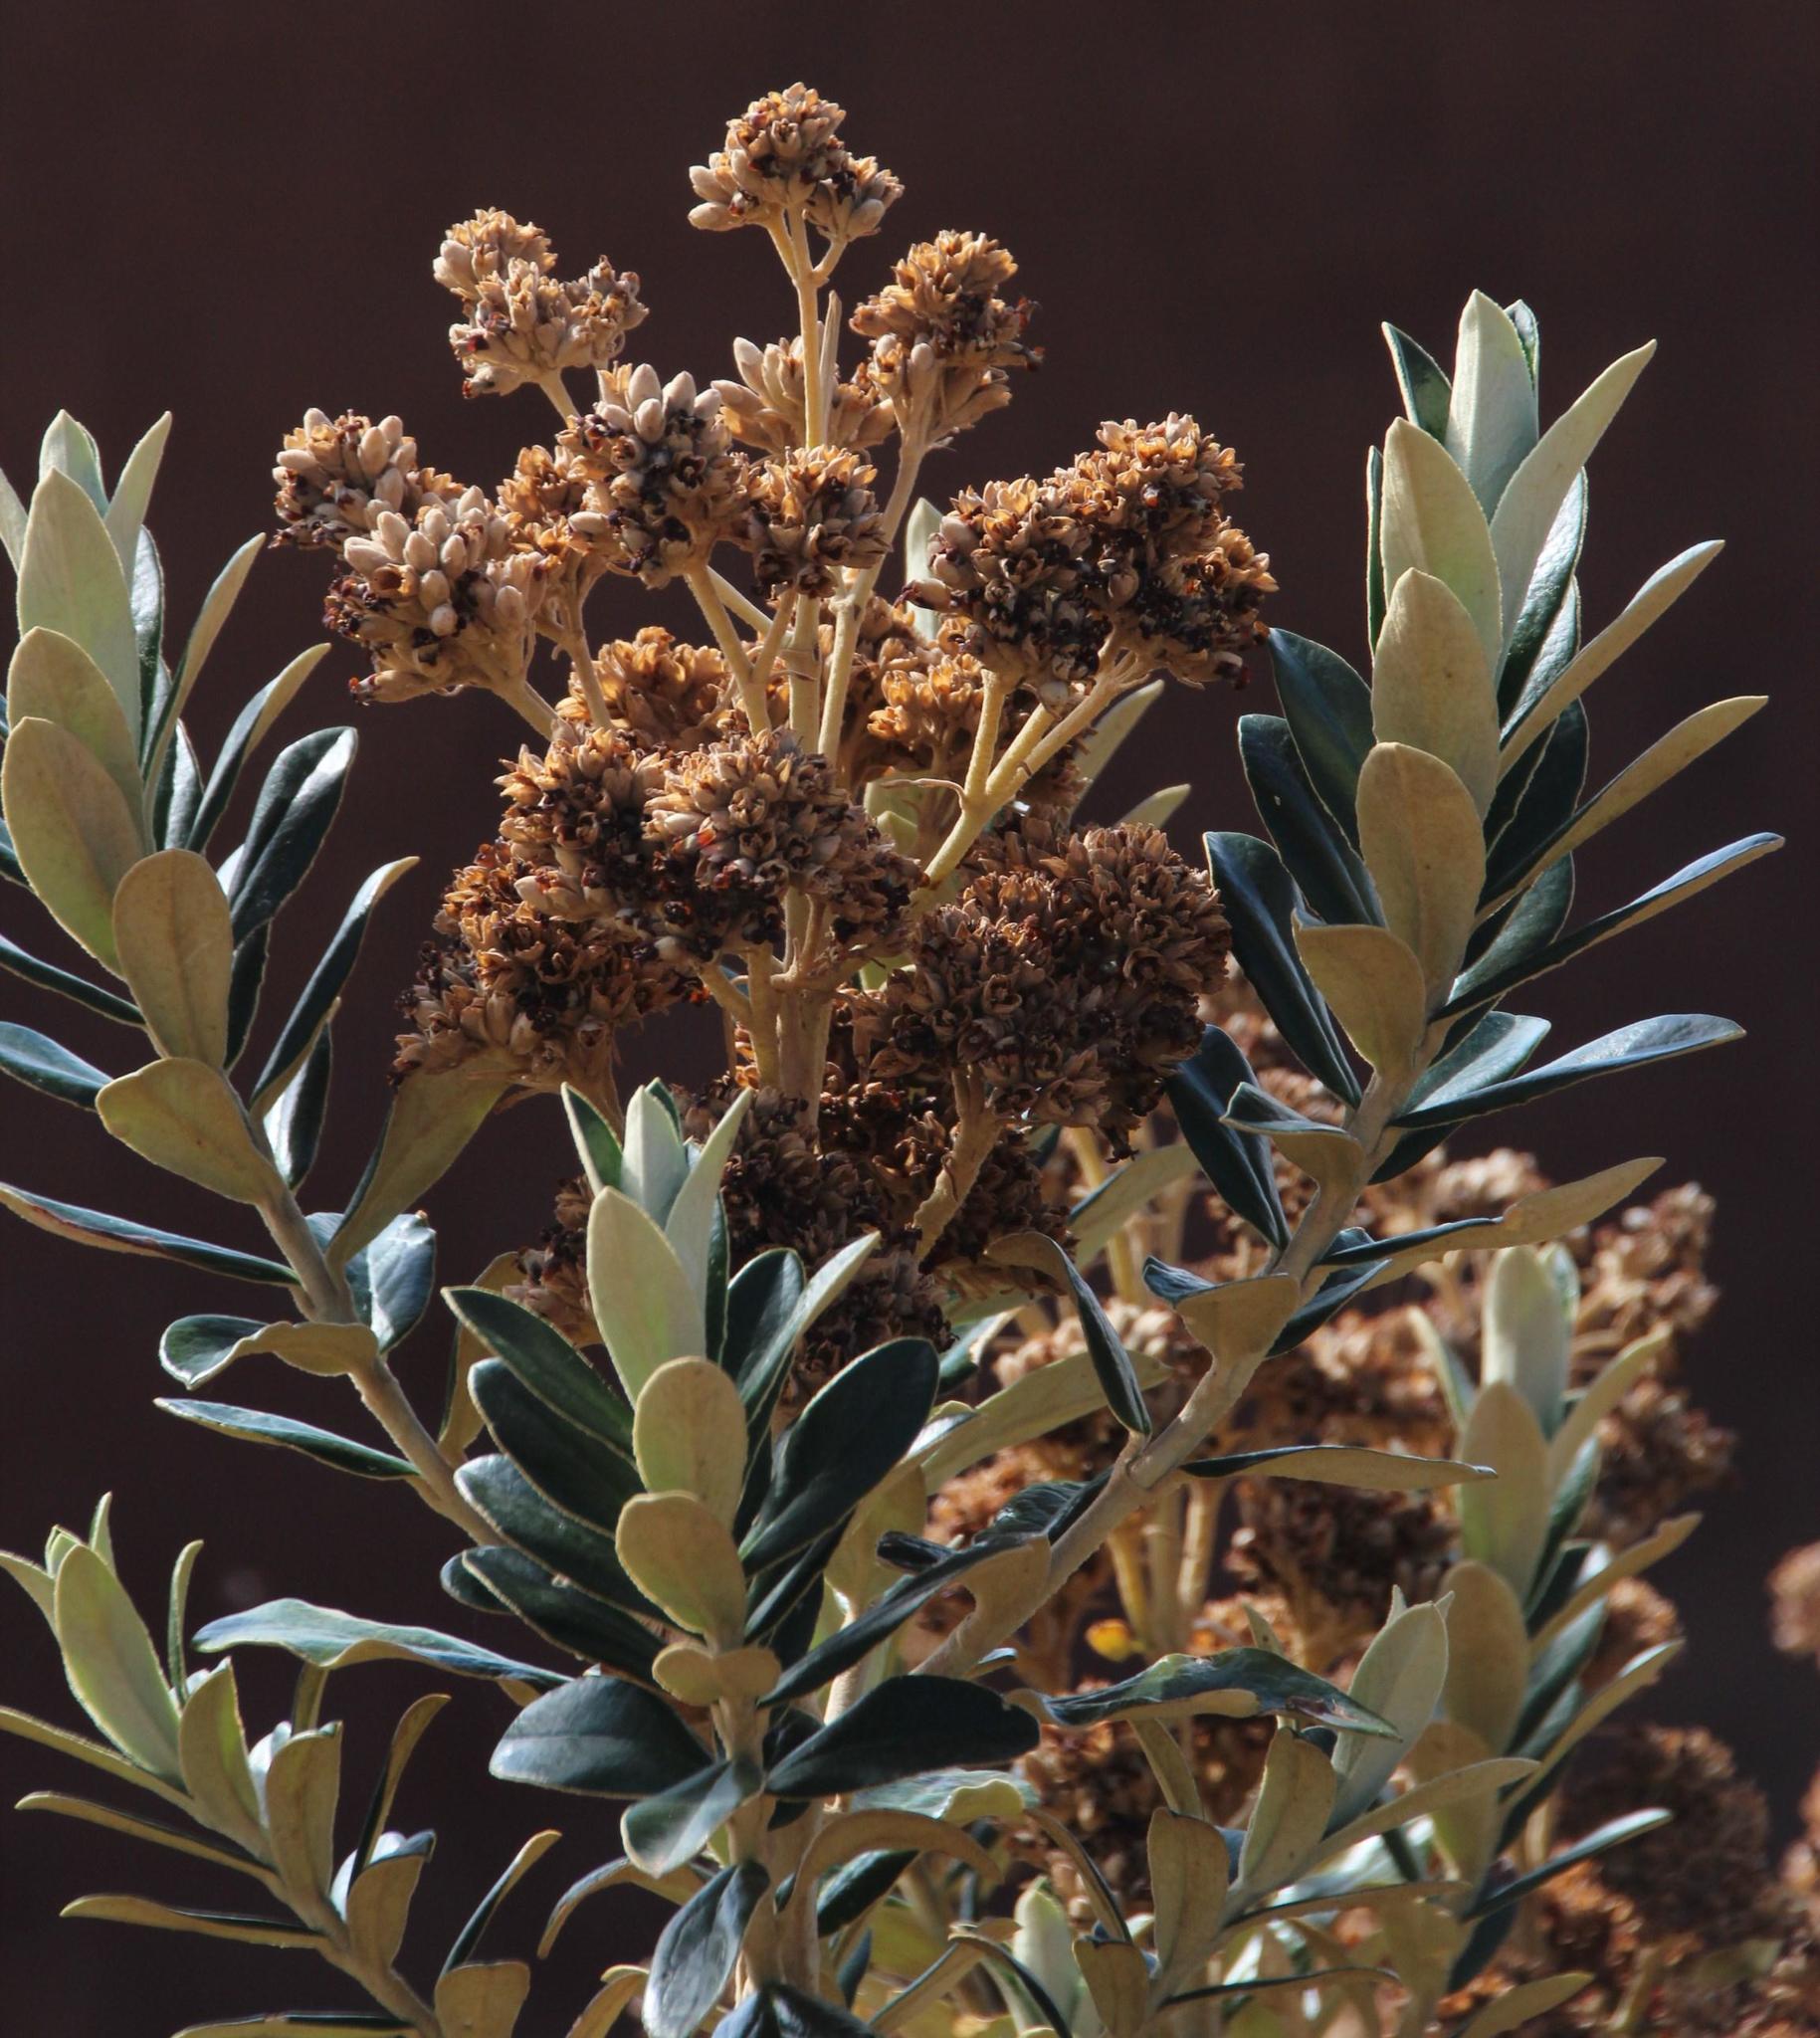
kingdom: Plantae
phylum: Tracheophyta
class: Magnoliopsida
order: Lamiales
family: Scrophulariaceae
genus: Buddleja
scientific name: Buddleja coriacea
